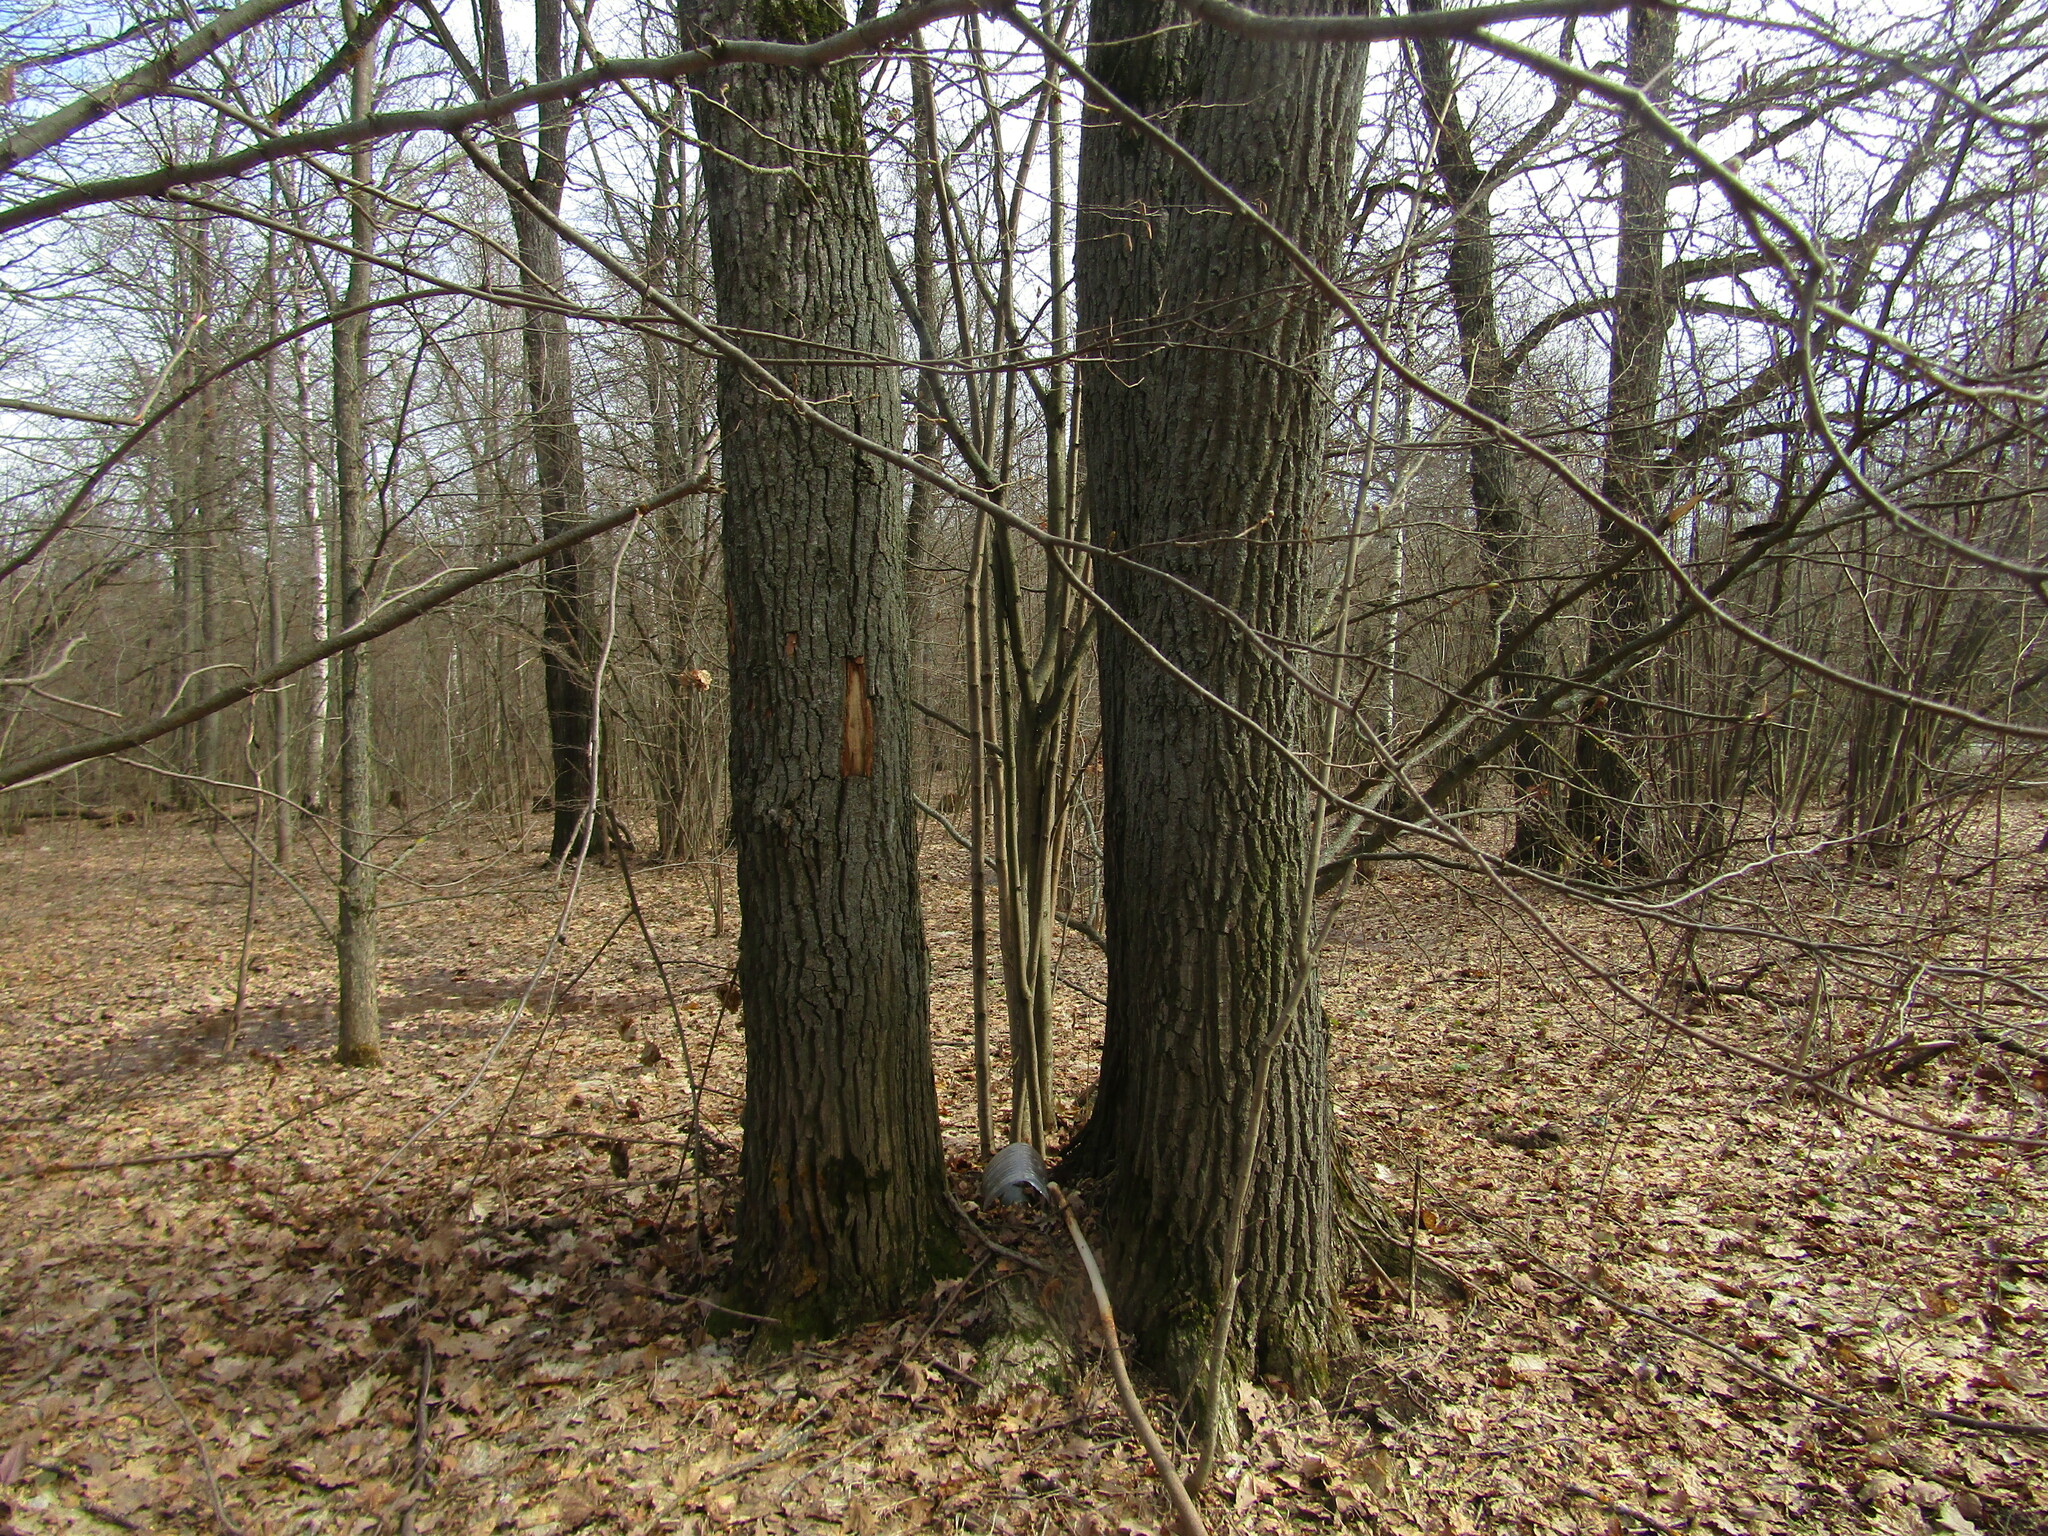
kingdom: Plantae
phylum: Tracheophyta
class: Magnoliopsida
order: Fagales
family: Fagaceae
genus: Quercus
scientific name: Quercus robur
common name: Pedunculate oak
